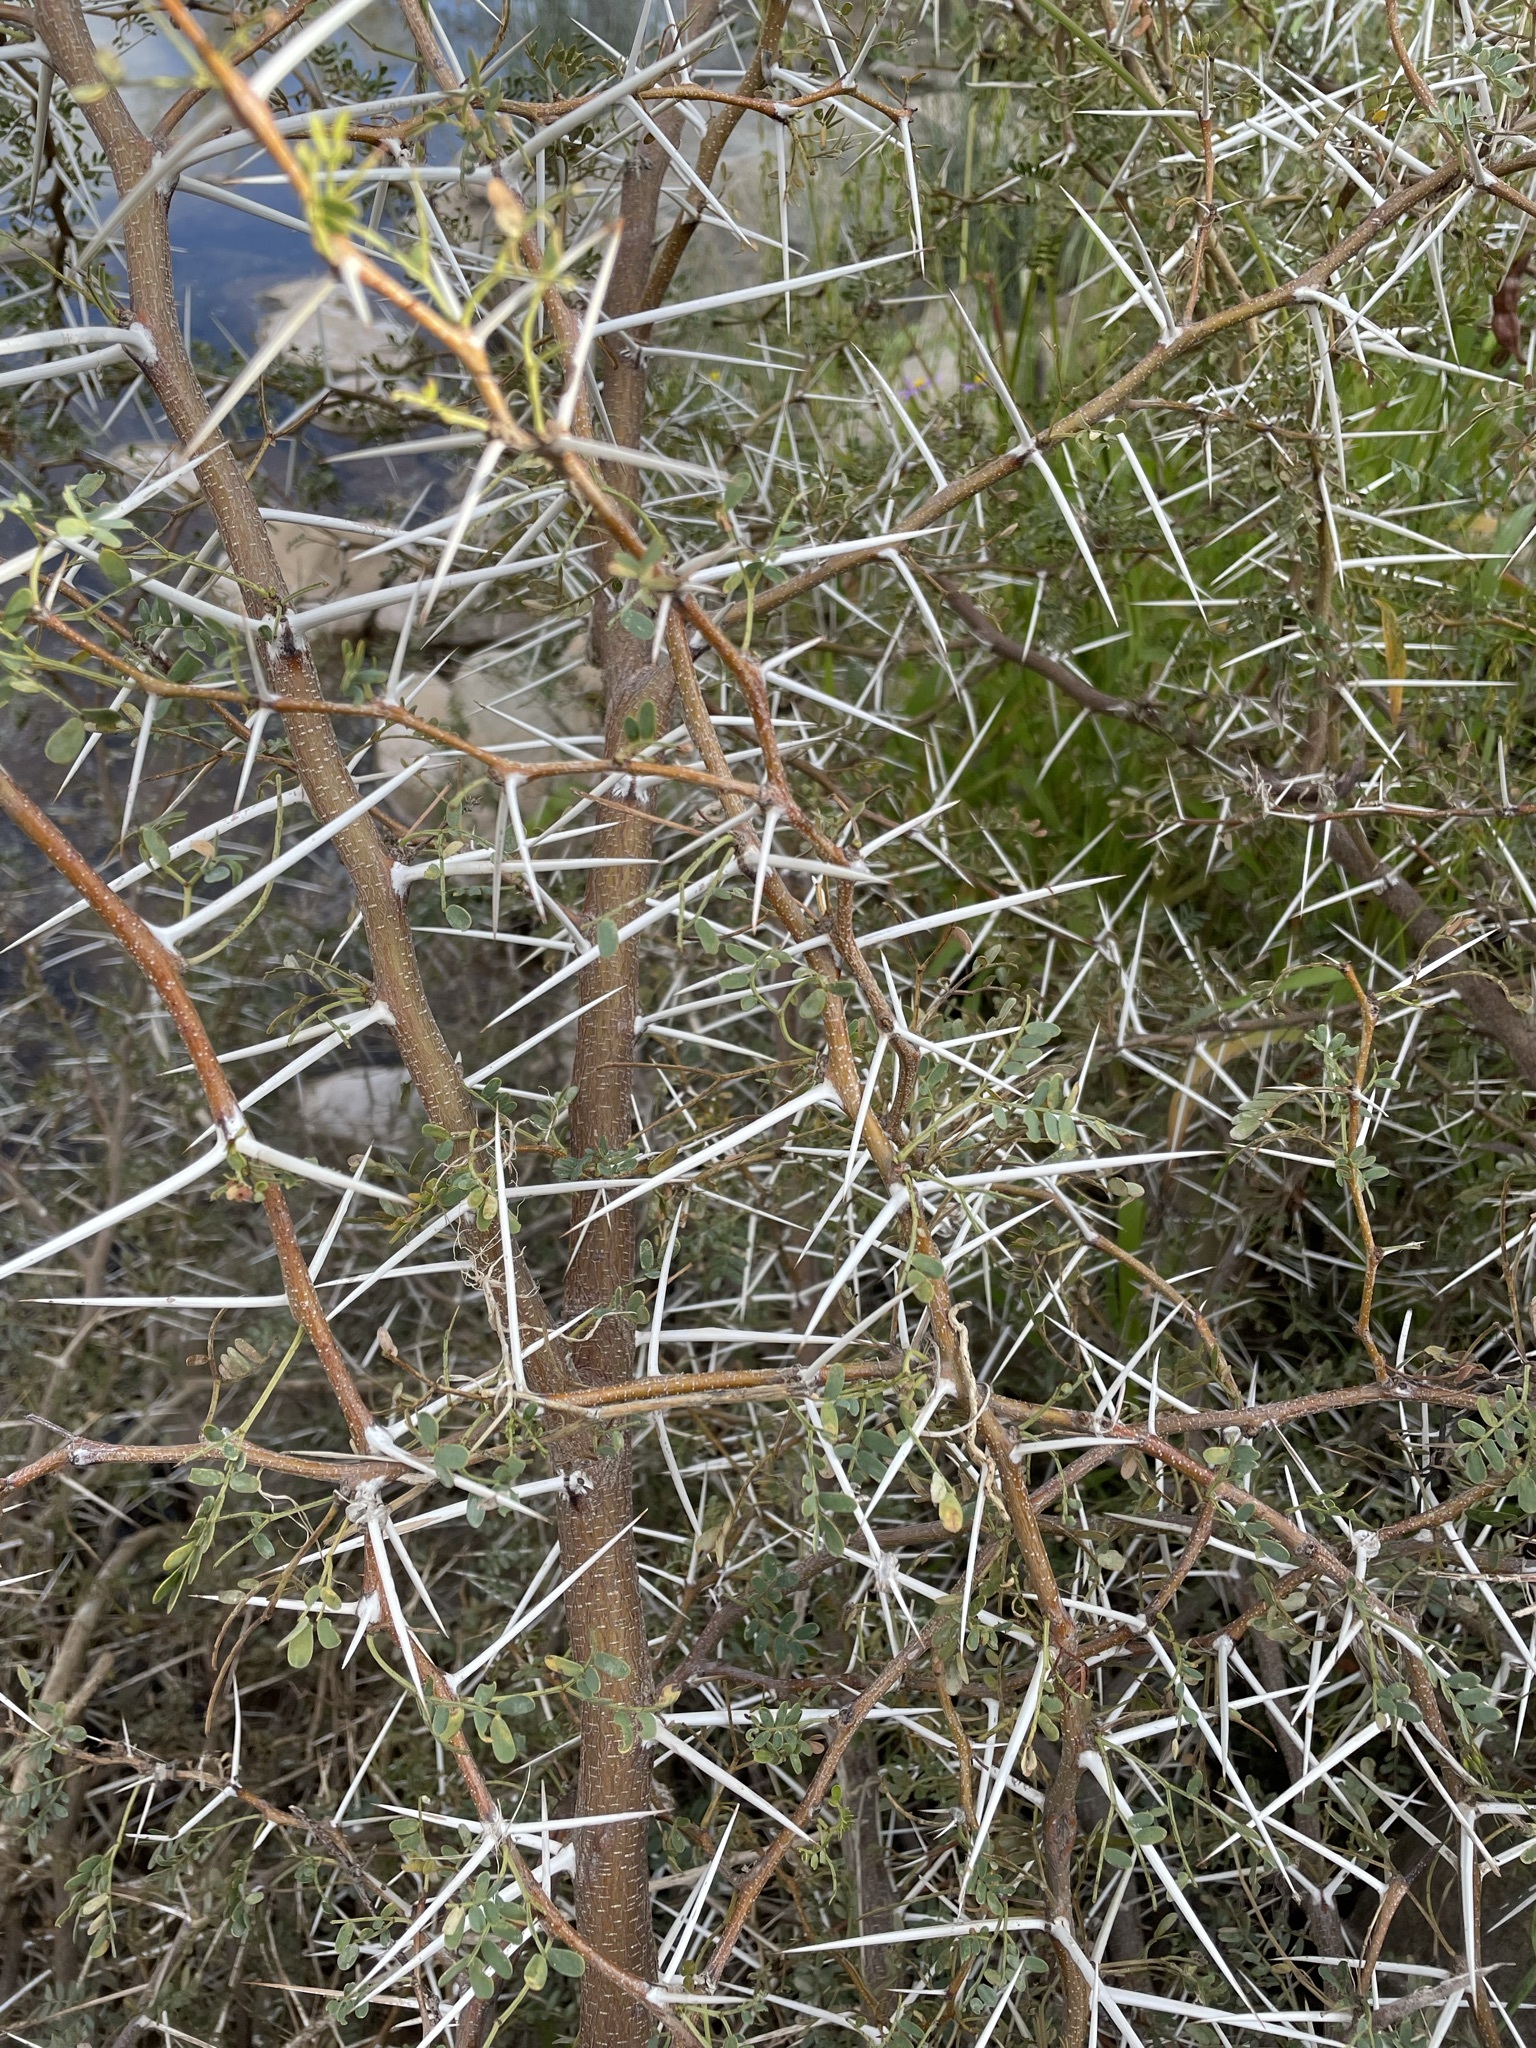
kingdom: Plantae
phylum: Tracheophyta
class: Magnoliopsida
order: Fabales
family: Fabaceae
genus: Vachellia
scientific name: Vachellia karroo
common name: Sweet thorn
